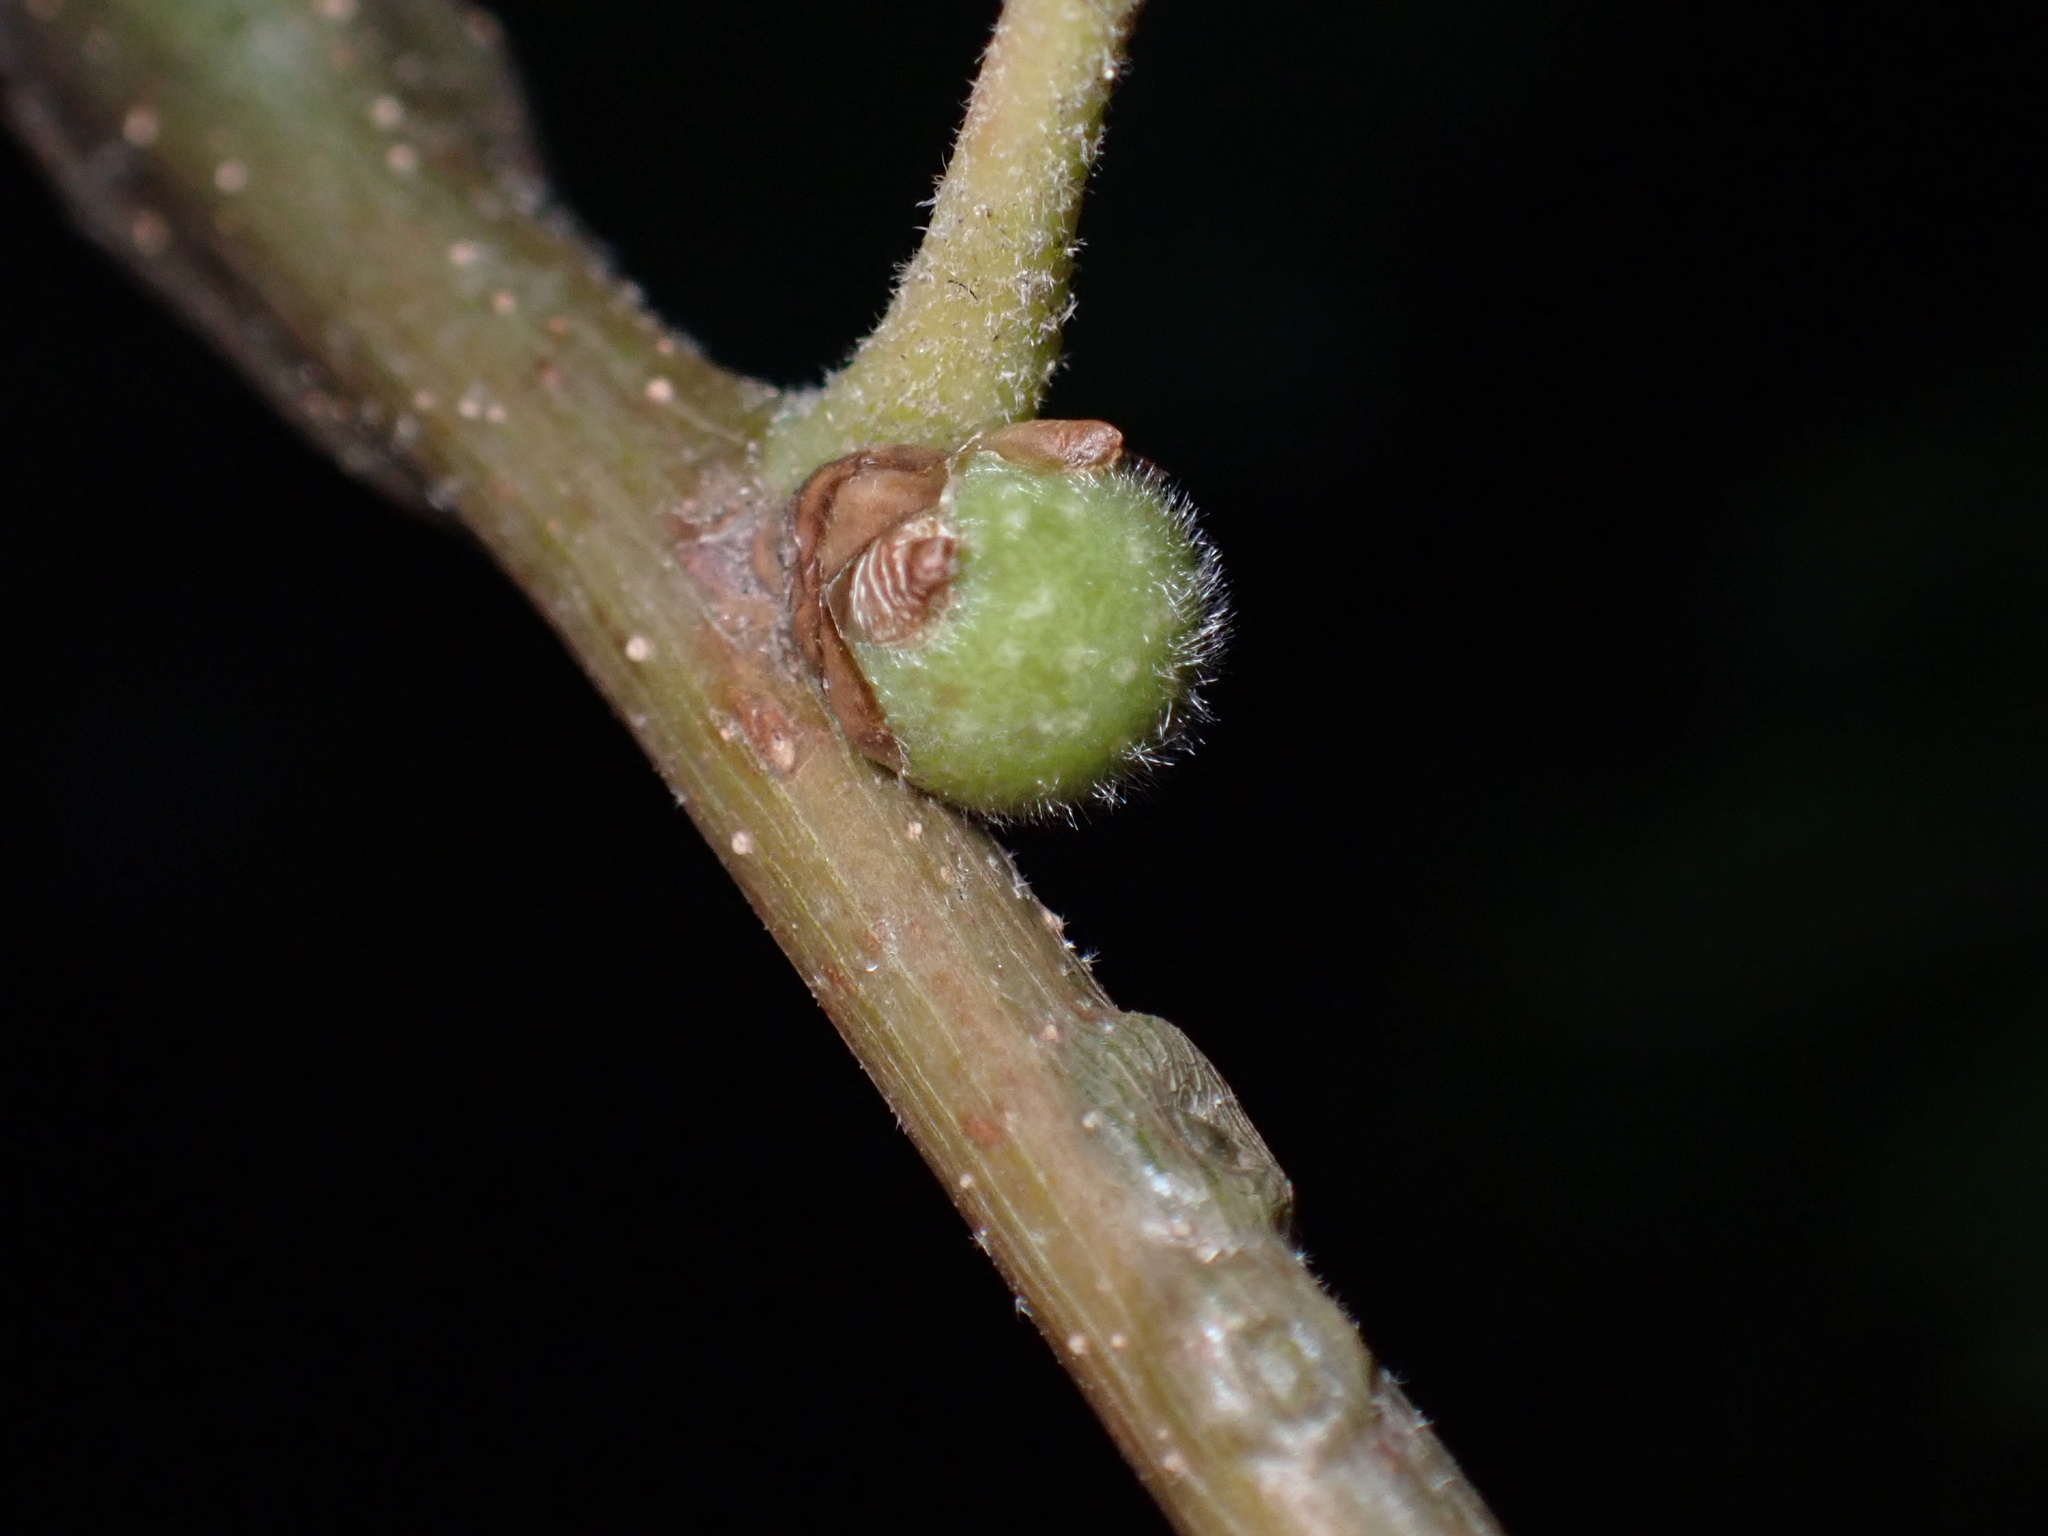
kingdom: Animalia
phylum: Arthropoda
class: Insecta
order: Hymenoptera
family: Cynipidae
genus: Callirhytis
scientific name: Callirhytis
